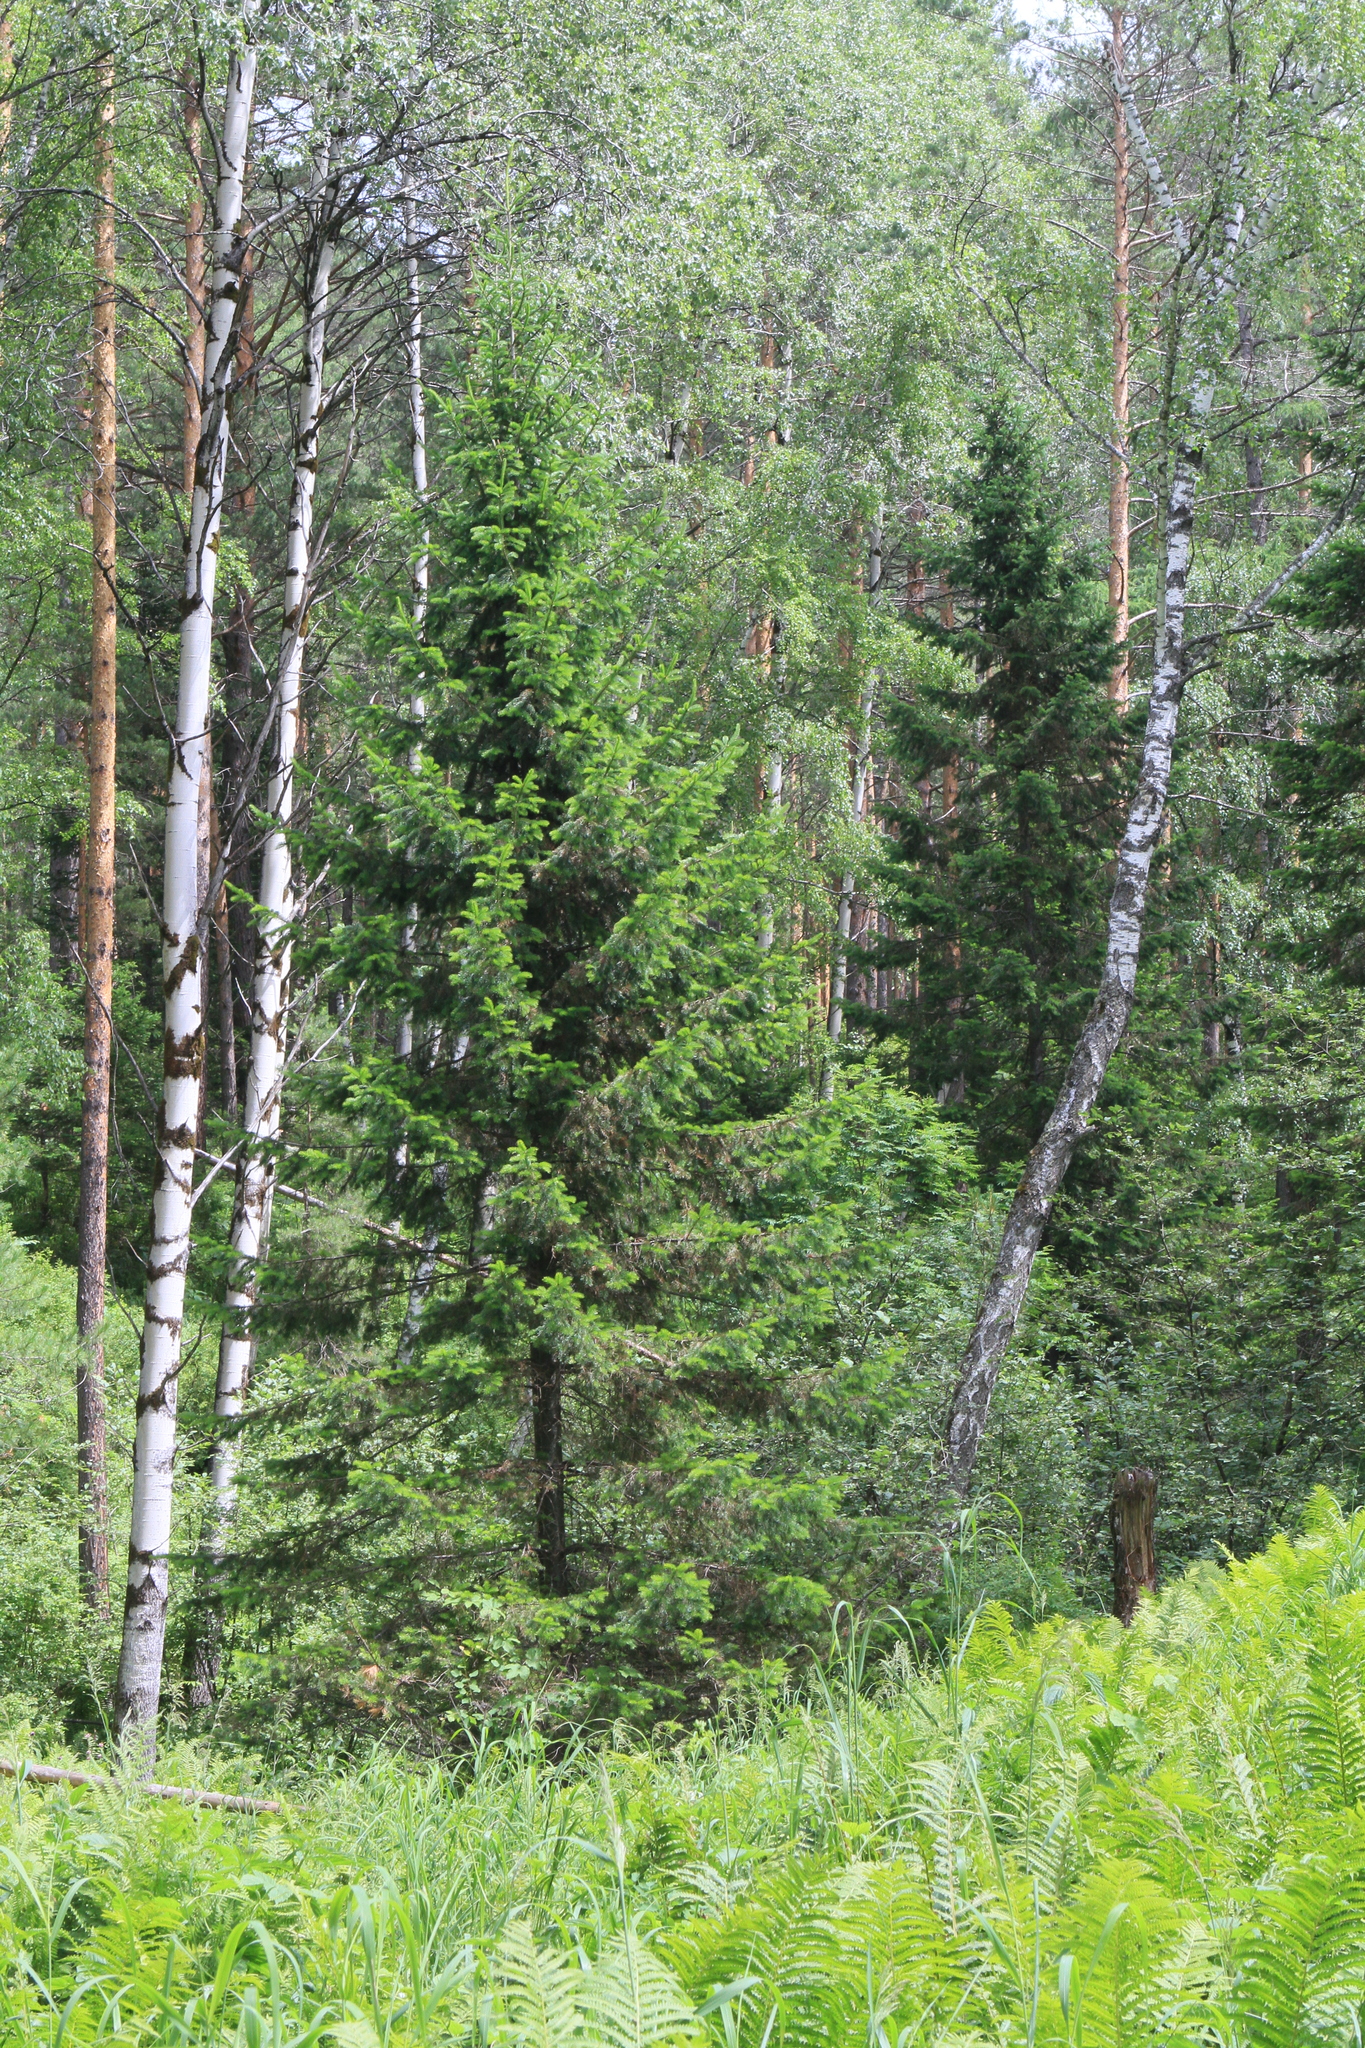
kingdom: Plantae
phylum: Tracheophyta
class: Pinopsida
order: Pinales
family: Pinaceae
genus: Abies
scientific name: Abies sibirica
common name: Siberian fir
